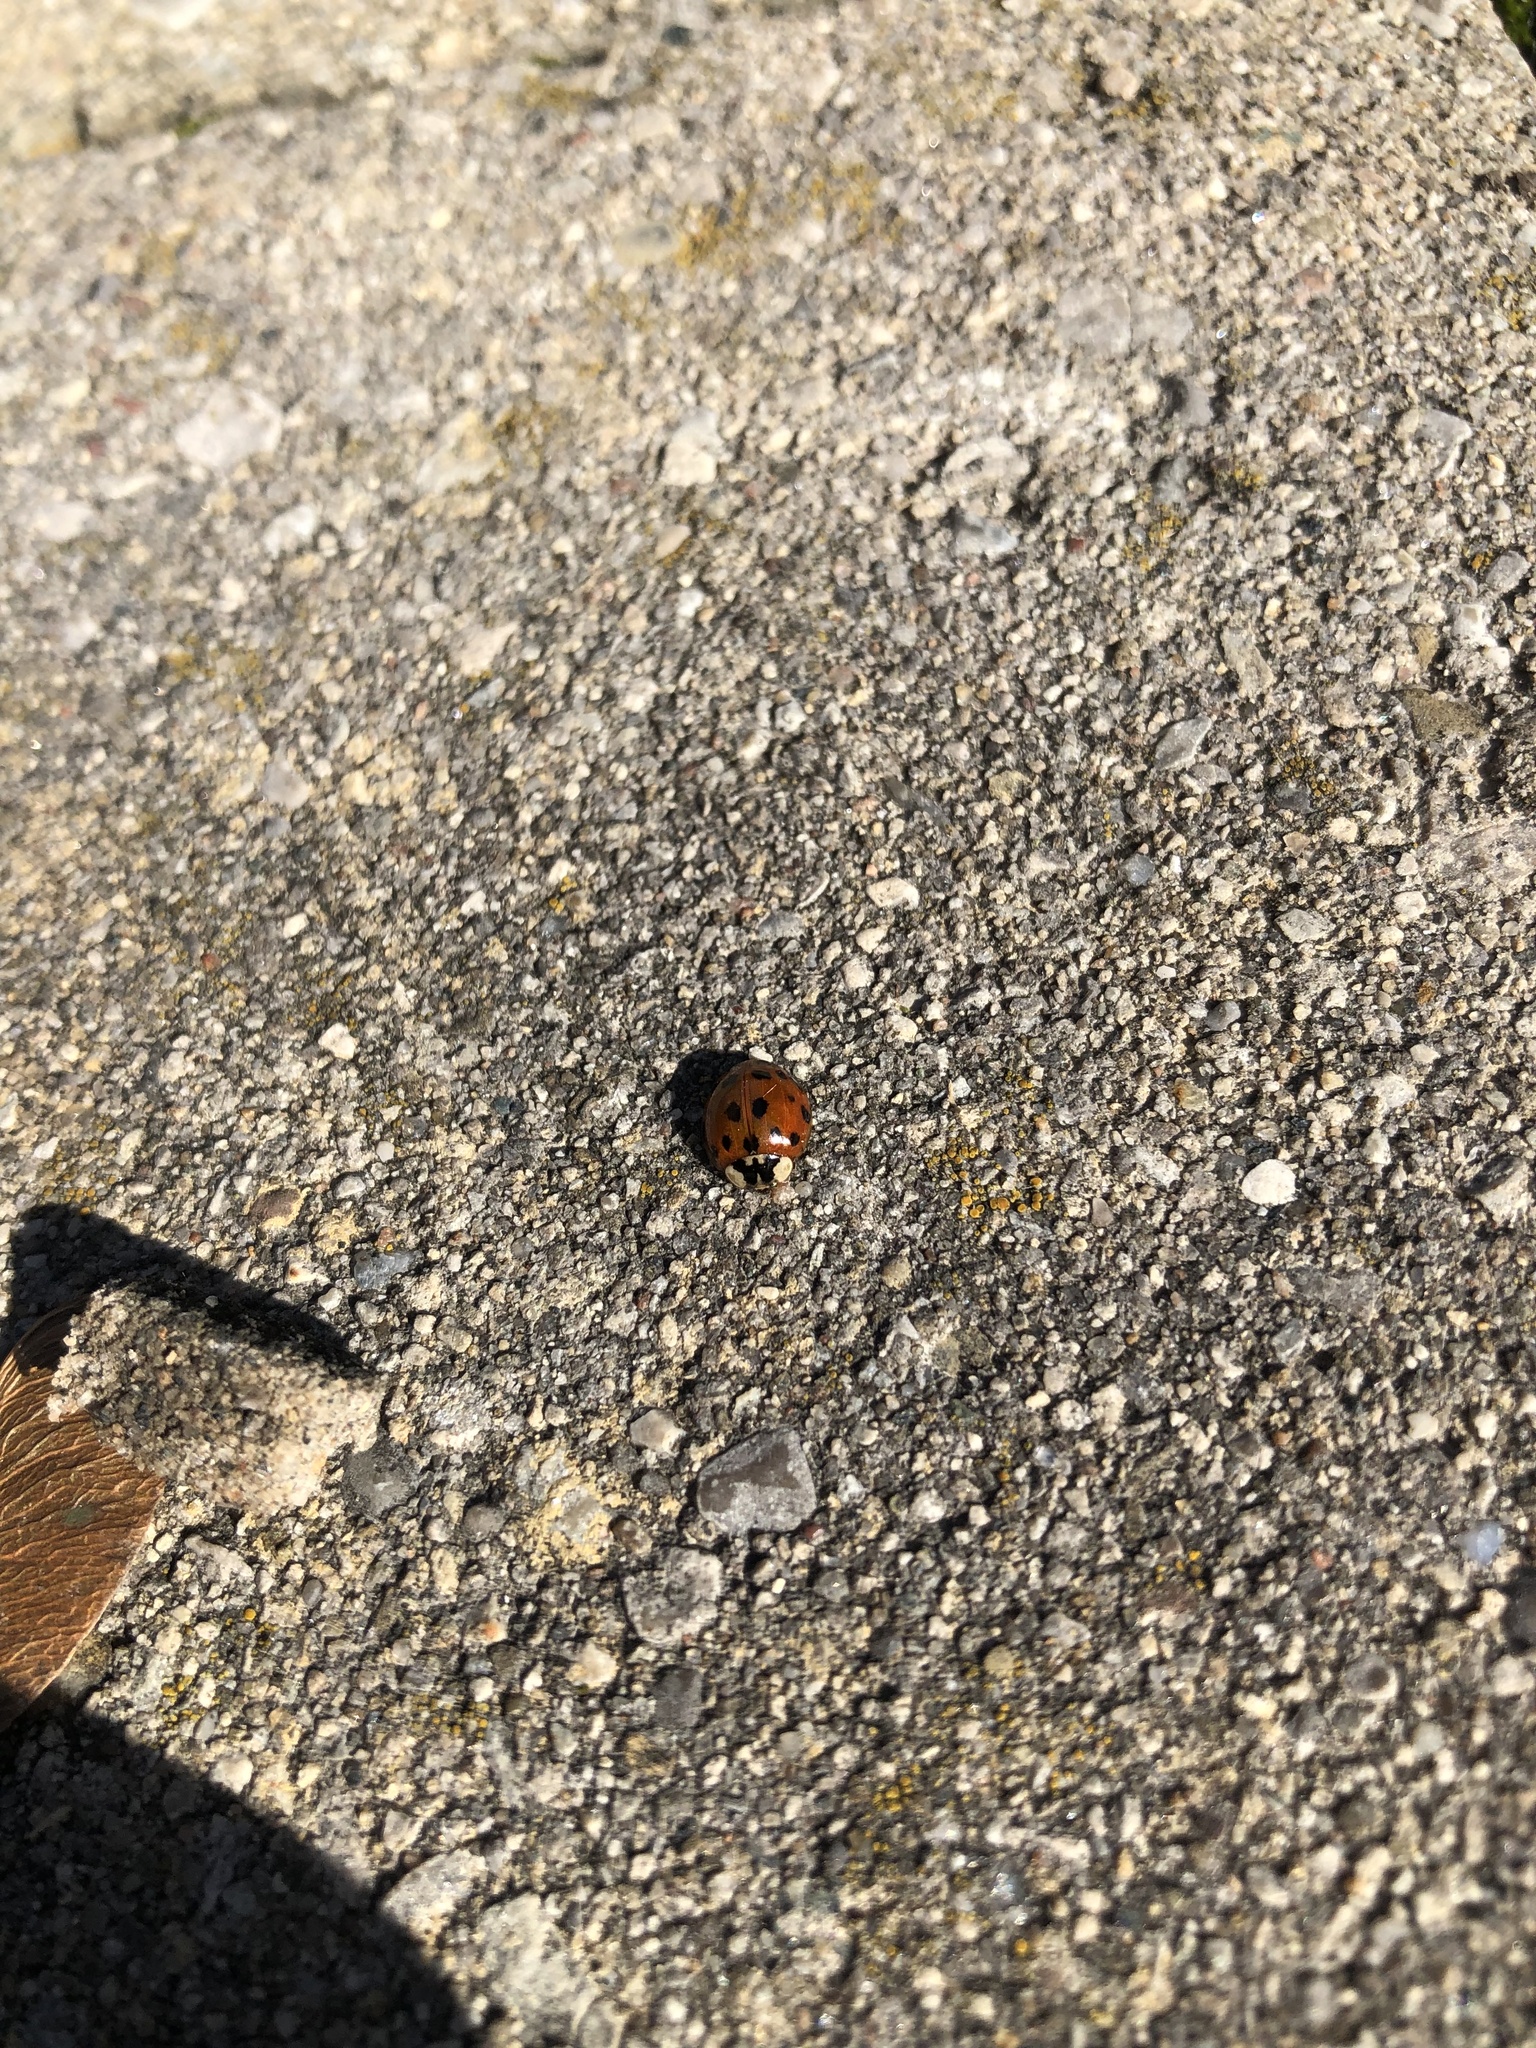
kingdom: Animalia
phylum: Arthropoda
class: Insecta
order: Coleoptera
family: Coccinellidae
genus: Harmonia
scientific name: Harmonia axyridis
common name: Harlequin ladybird
